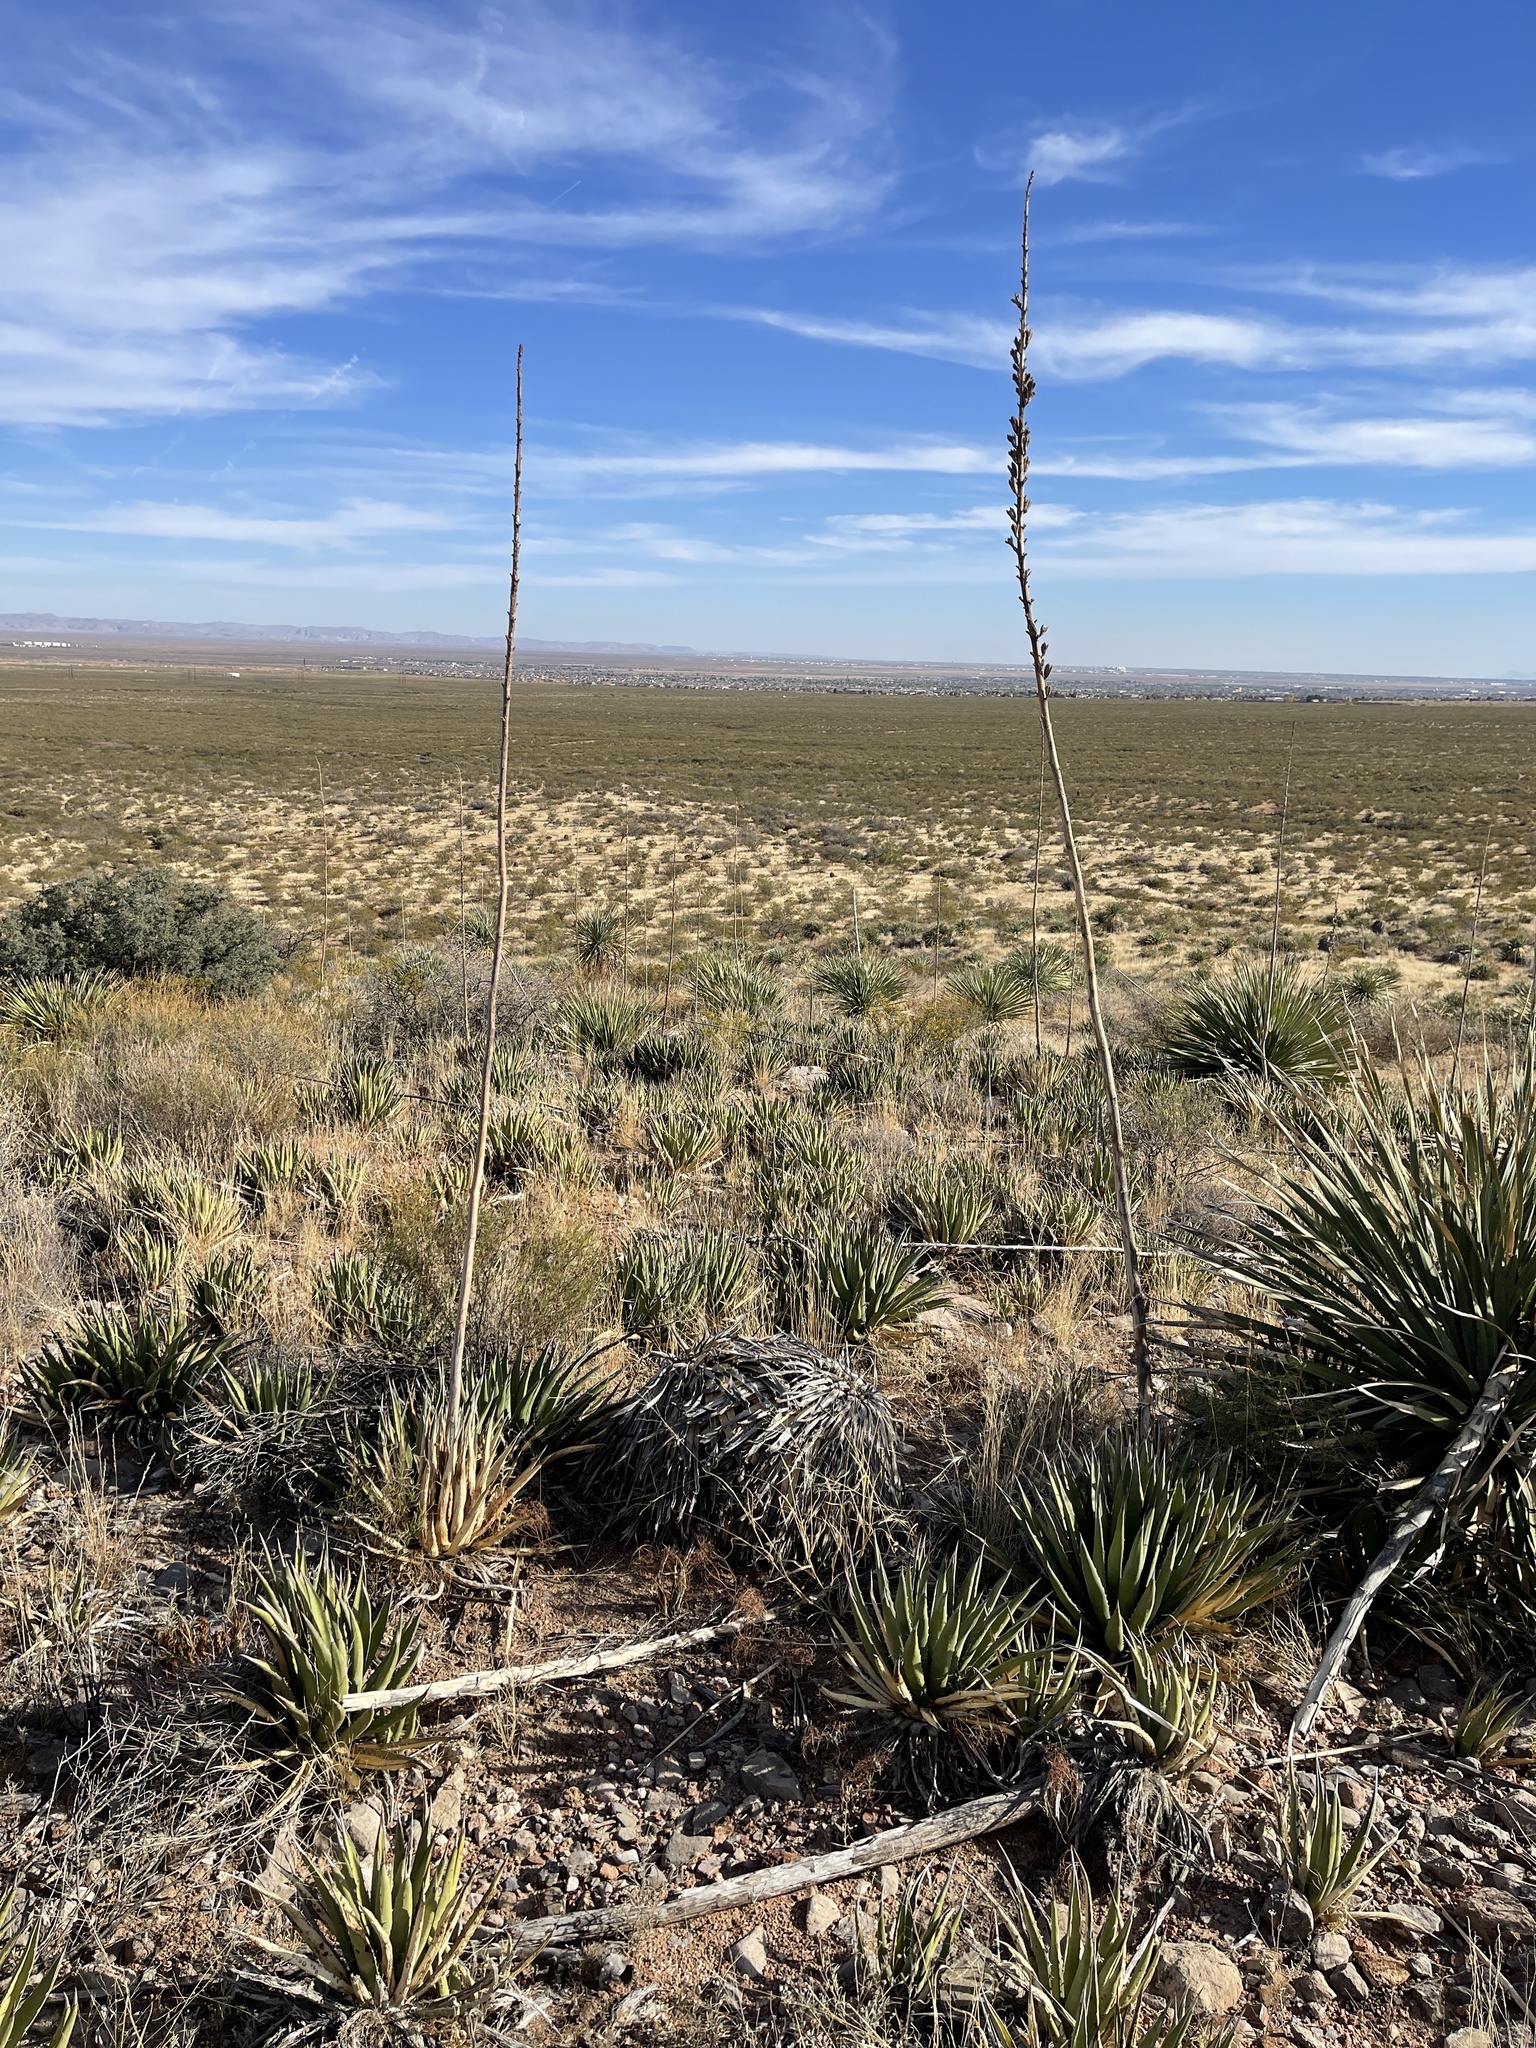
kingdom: Plantae
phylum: Tracheophyta
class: Liliopsida
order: Asparagales
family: Asparagaceae
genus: Agave
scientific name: Agave lechuguilla
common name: Lecheguilla agave
